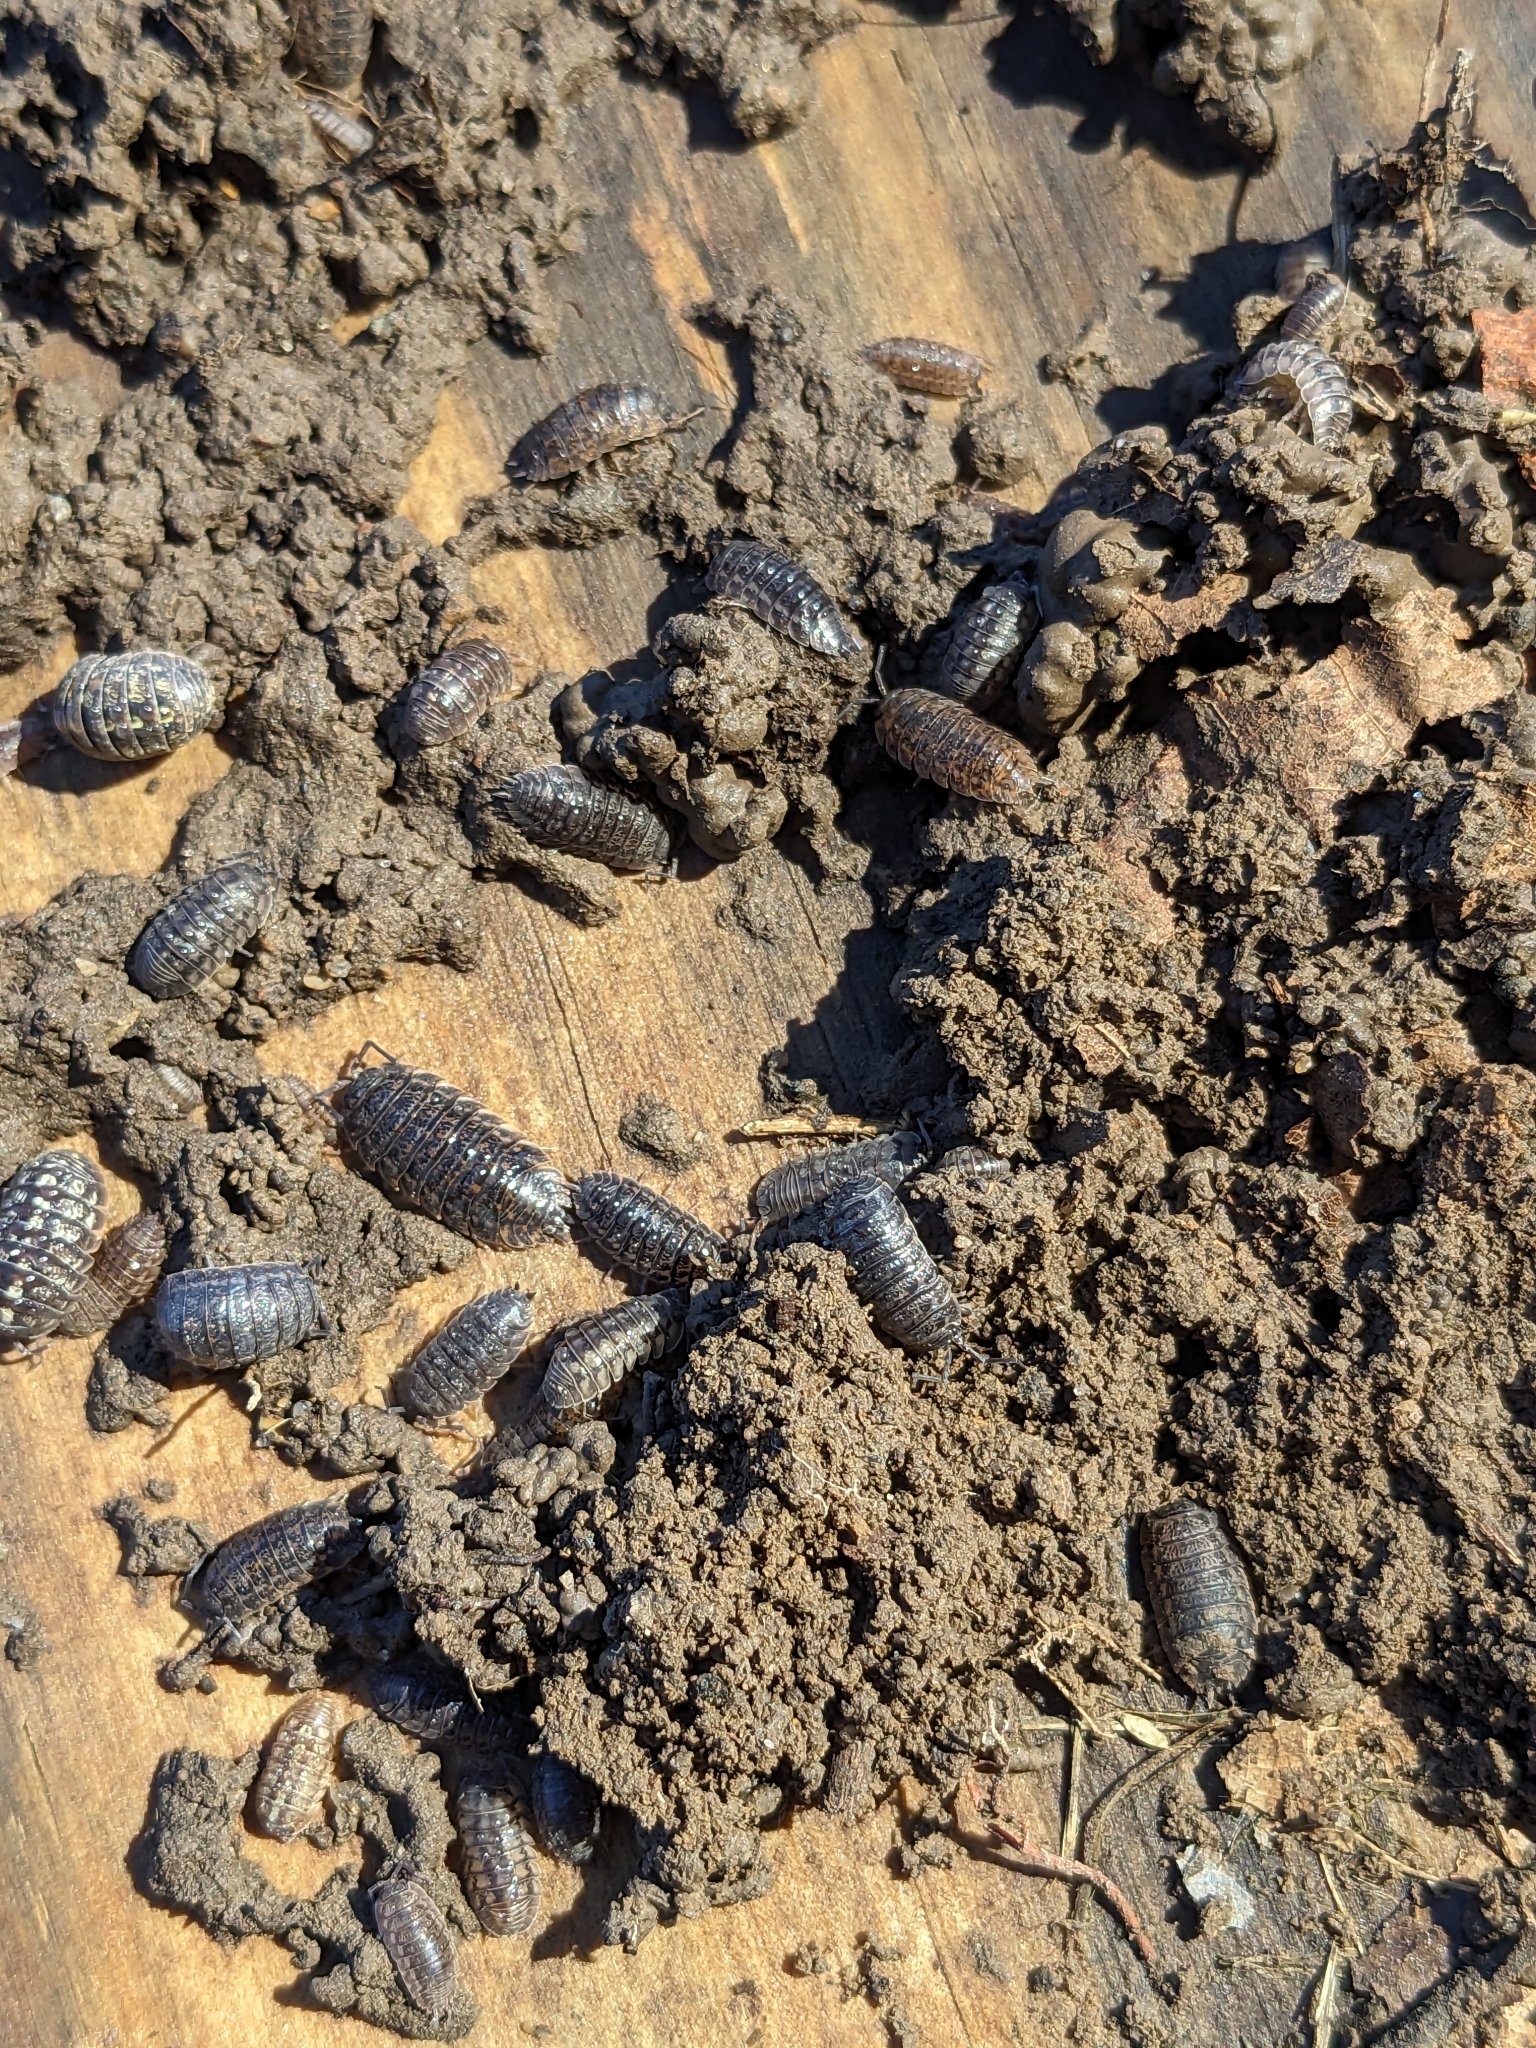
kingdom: Animalia
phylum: Arthropoda
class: Malacostraca
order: Isopoda
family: Trachelipodidae
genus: Trachelipus
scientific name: Trachelipus rathkii
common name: Isopod
